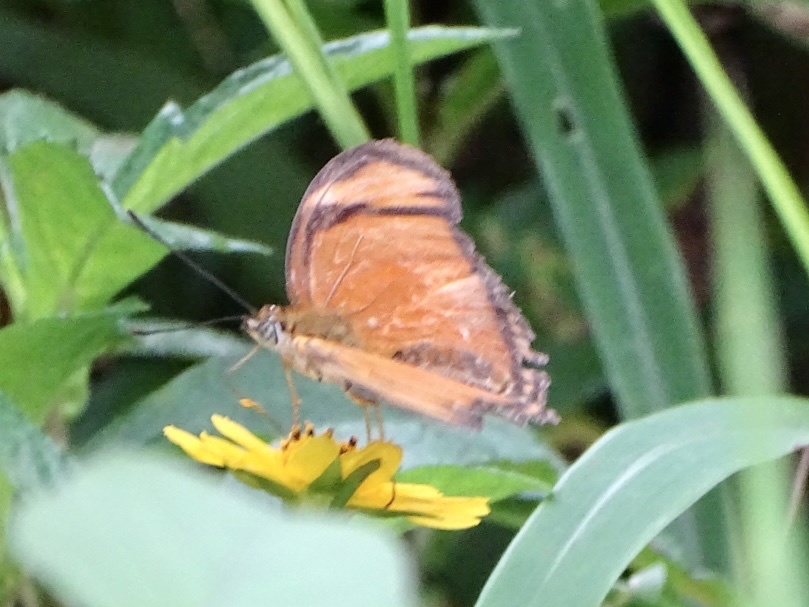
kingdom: Animalia
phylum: Arthropoda
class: Insecta
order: Lepidoptera
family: Nymphalidae
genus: Dryas
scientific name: Dryas iulia
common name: Flambeau
